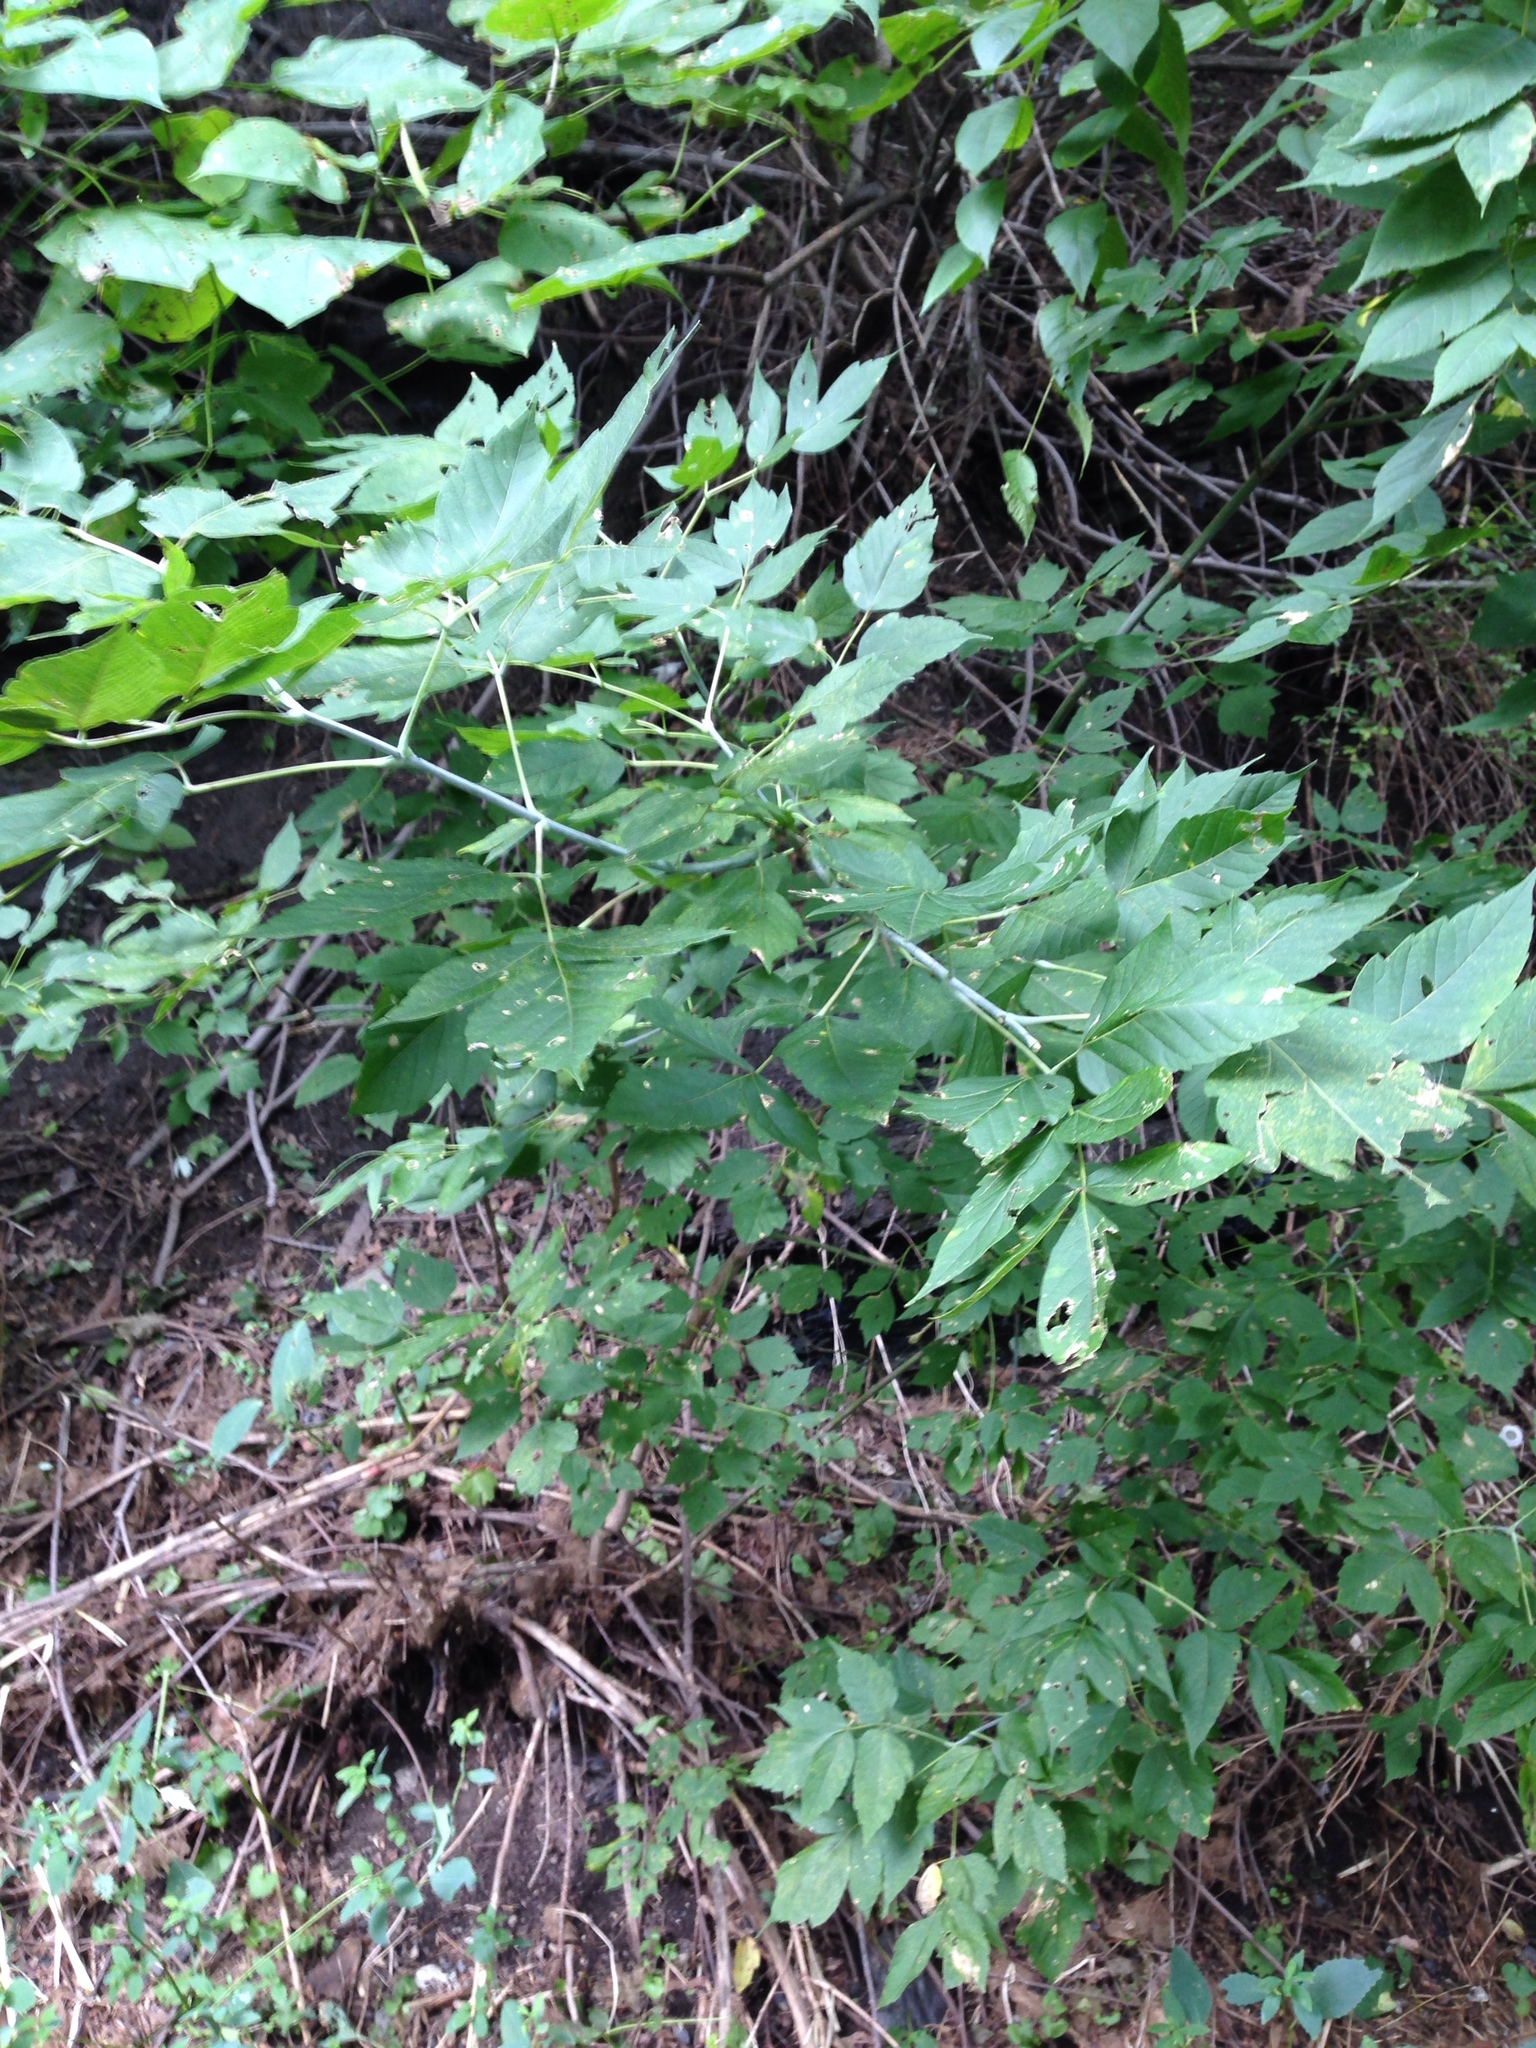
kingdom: Plantae
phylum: Tracheophyta
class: Magnoliopsida
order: Sapindales
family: Sapindaceae
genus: Acer
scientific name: Acer negundo
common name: Ashleaf maple
